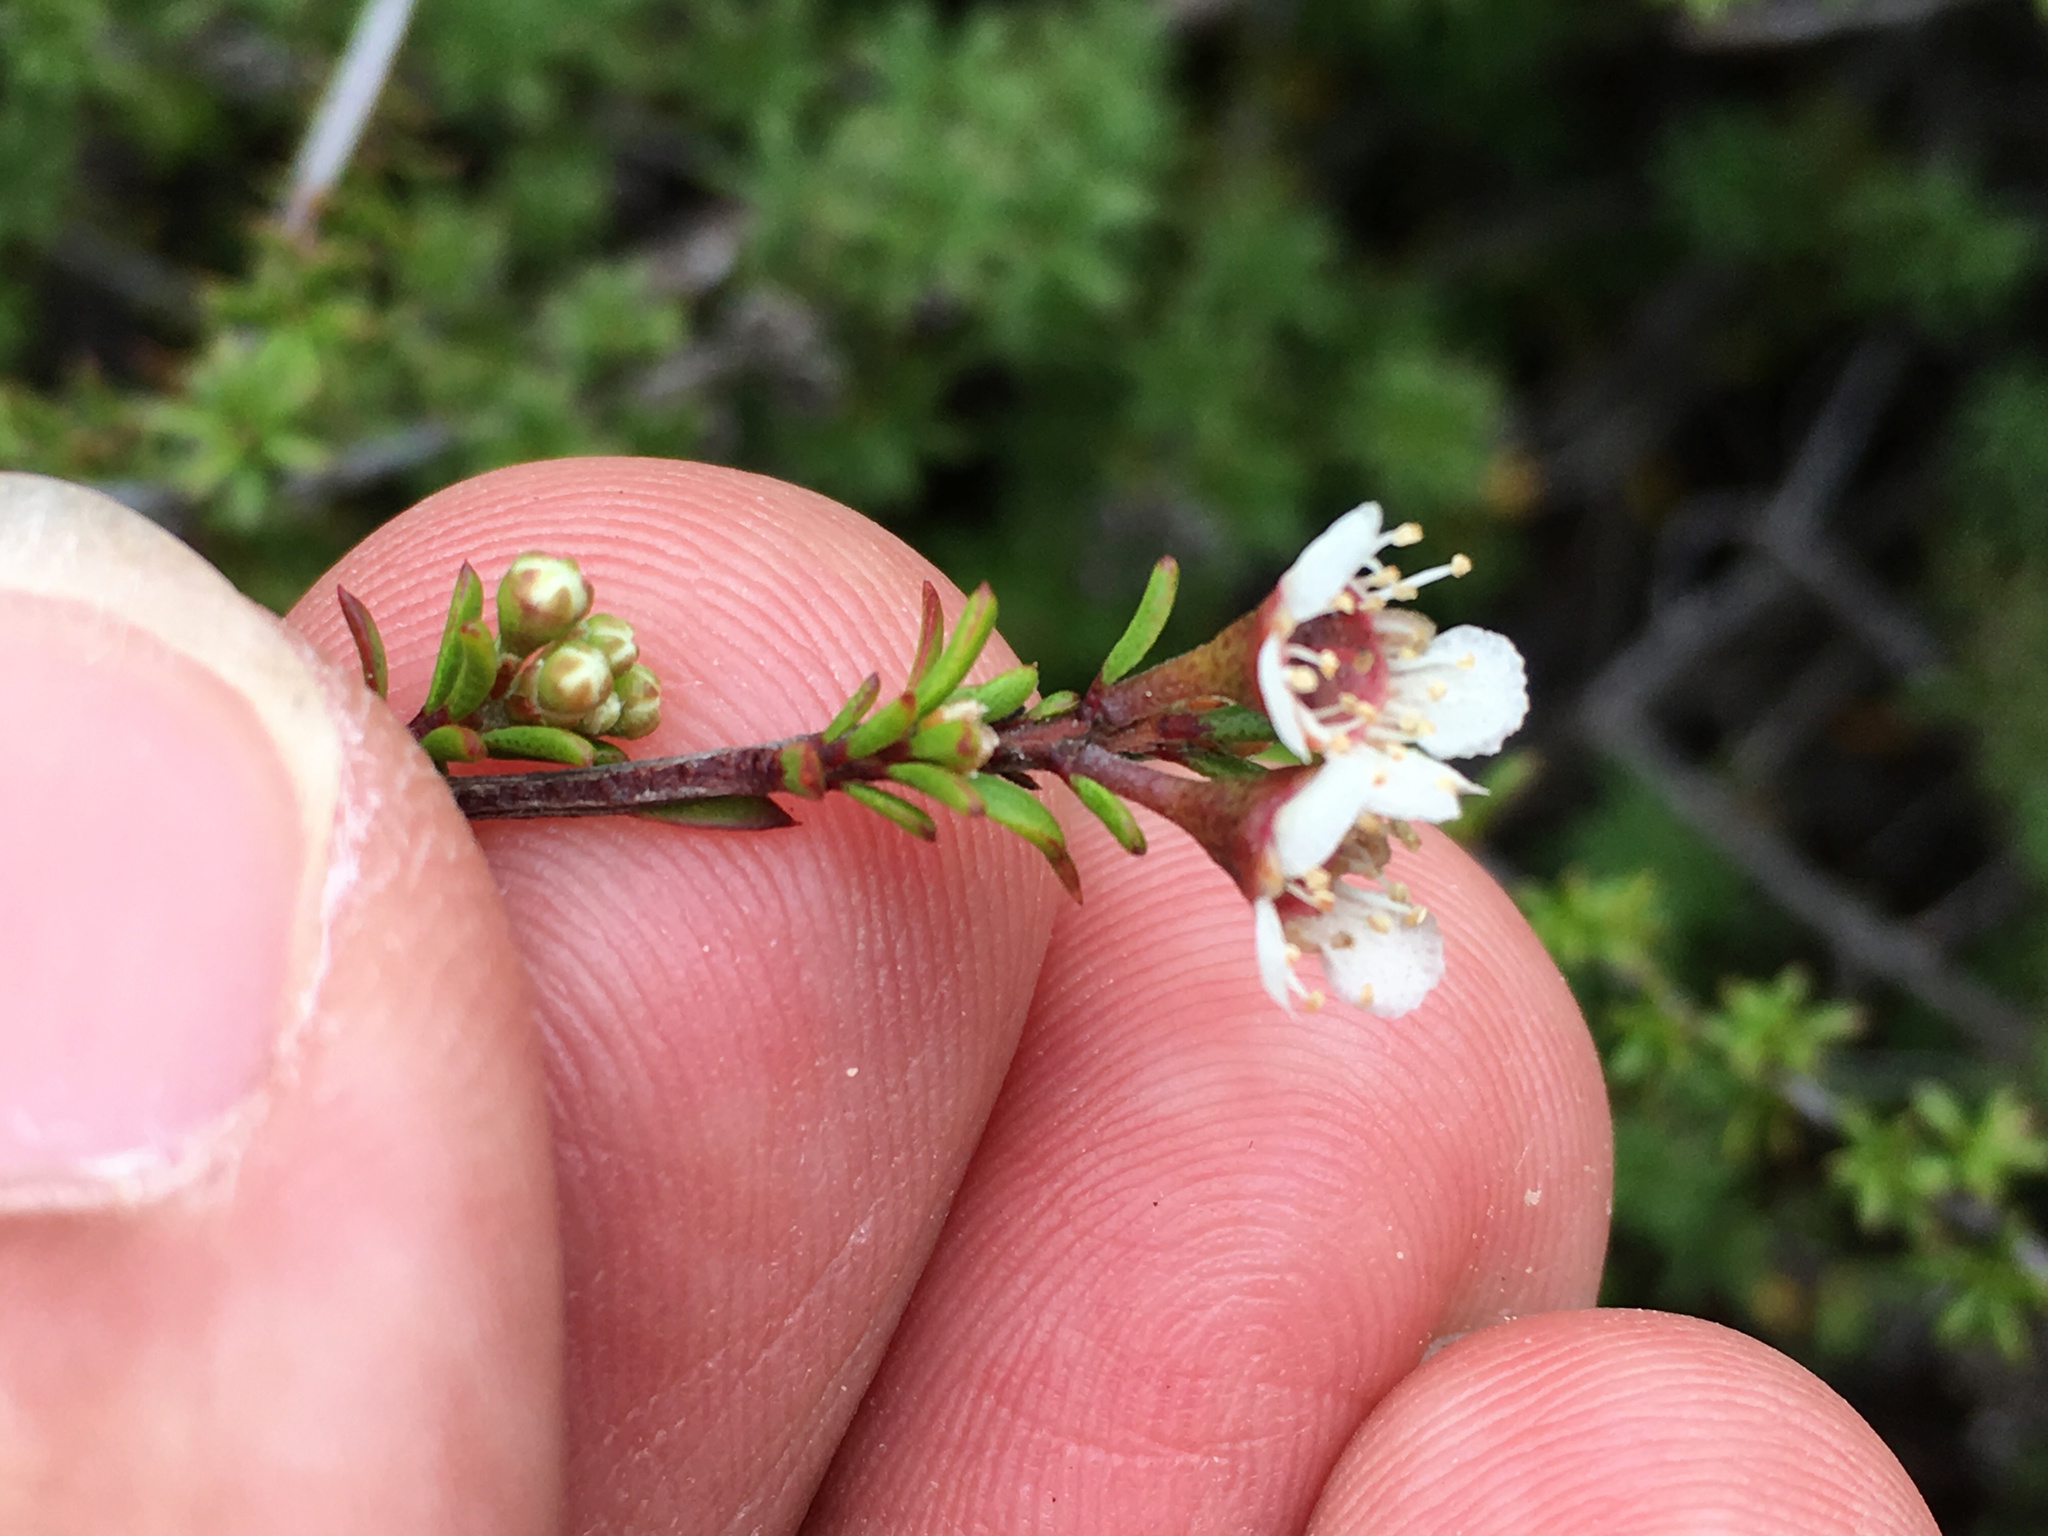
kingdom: Plantae
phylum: Tracheophyta
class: Magnoliopsida
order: Myrtales
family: Myrtaceae
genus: Kunzea
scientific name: Kunzea tenuicaulis
